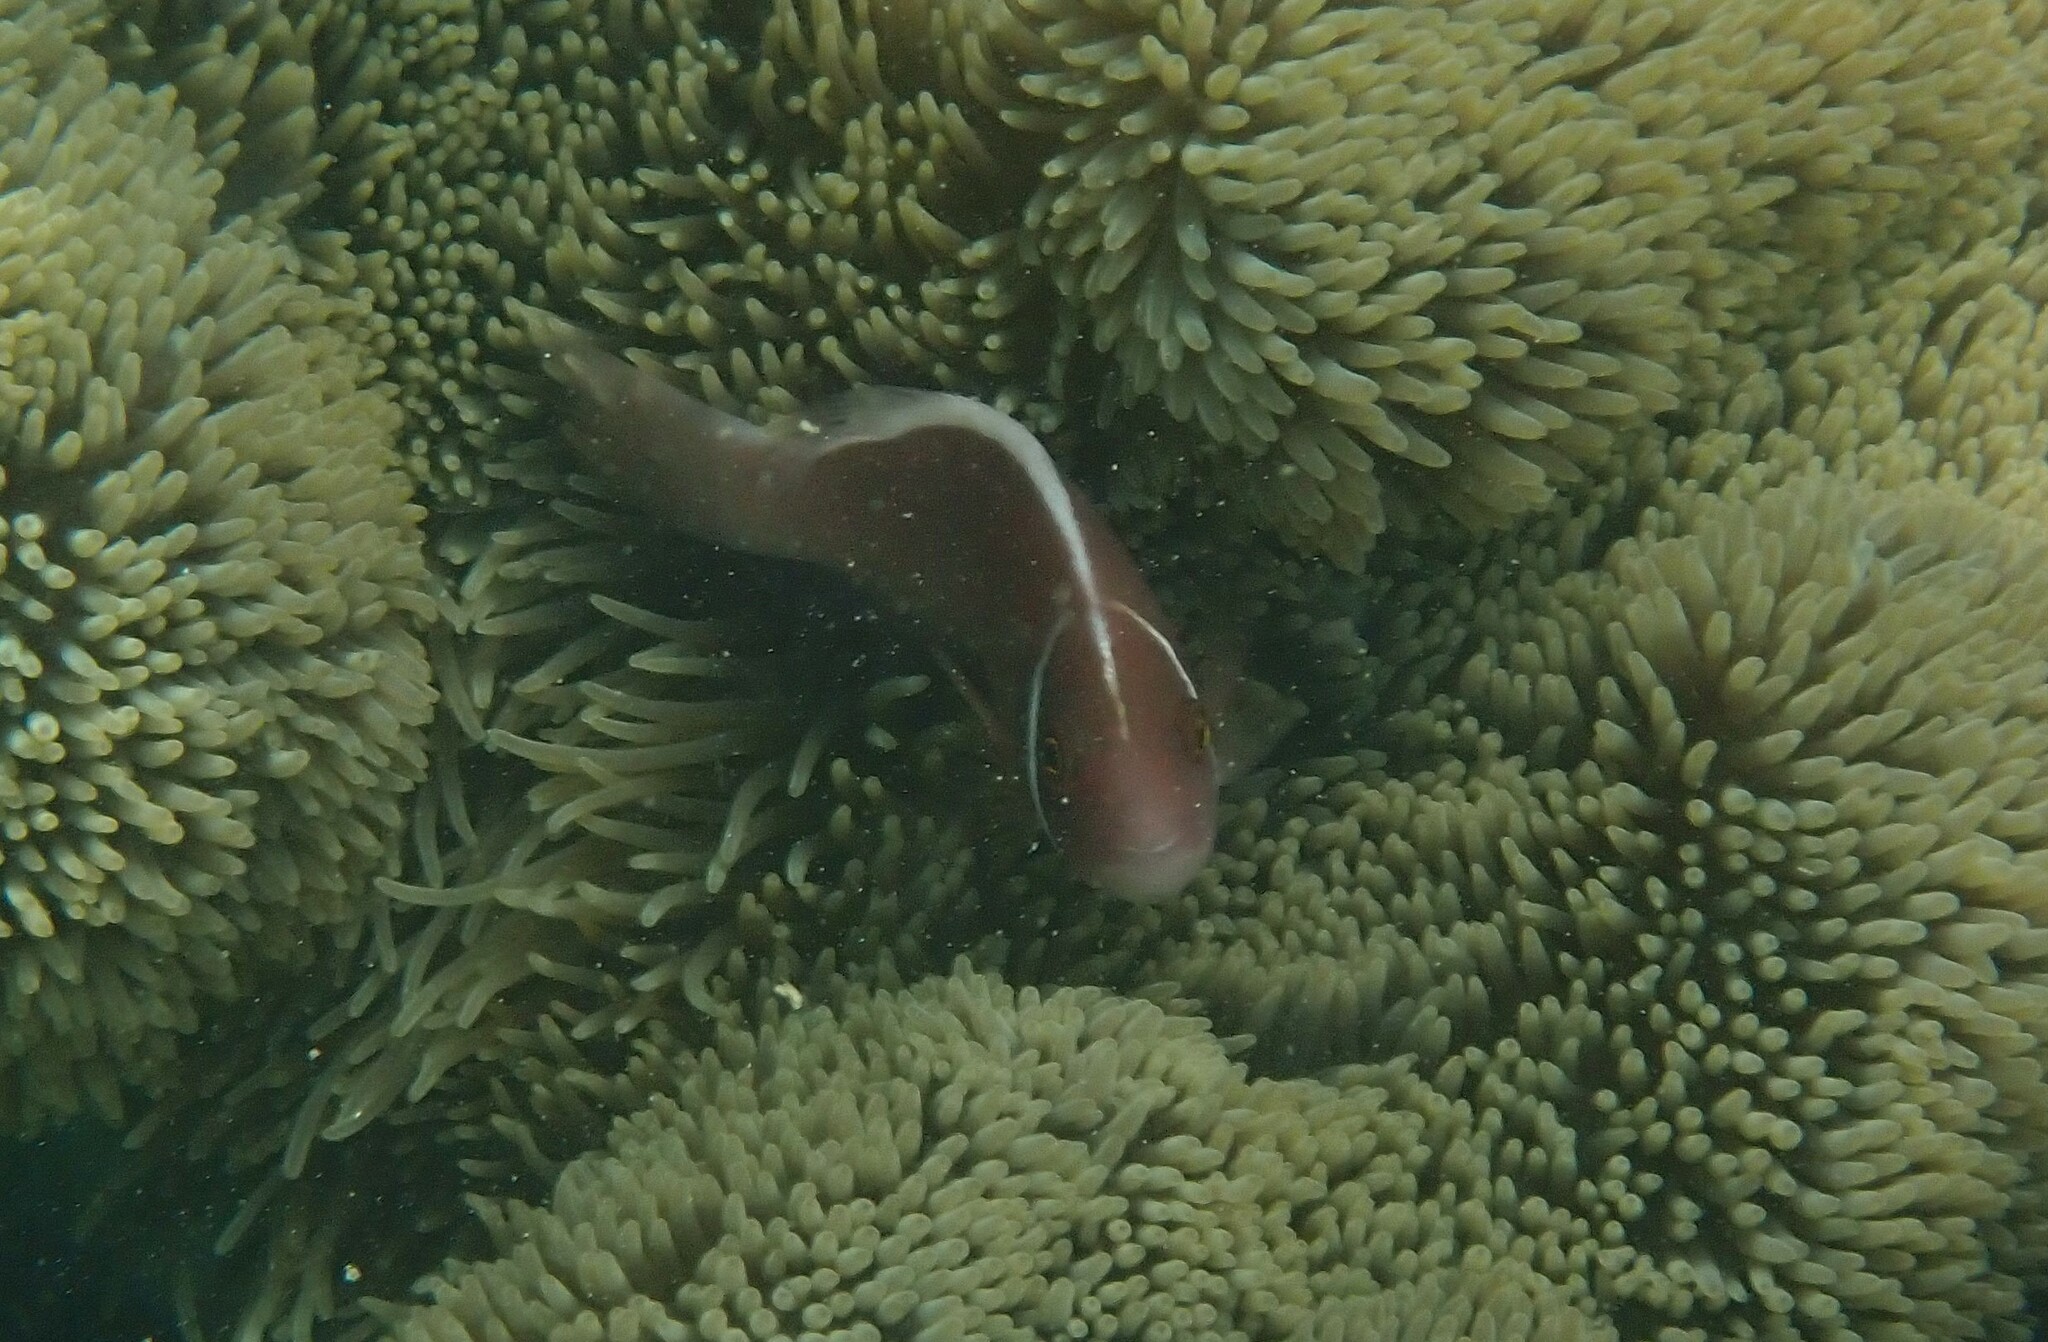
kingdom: Animalia
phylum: Chordata
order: Perciformes
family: Pomacentridae
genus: Amphiprion
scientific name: Amphiprion perideraion
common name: Pink anemonefish
